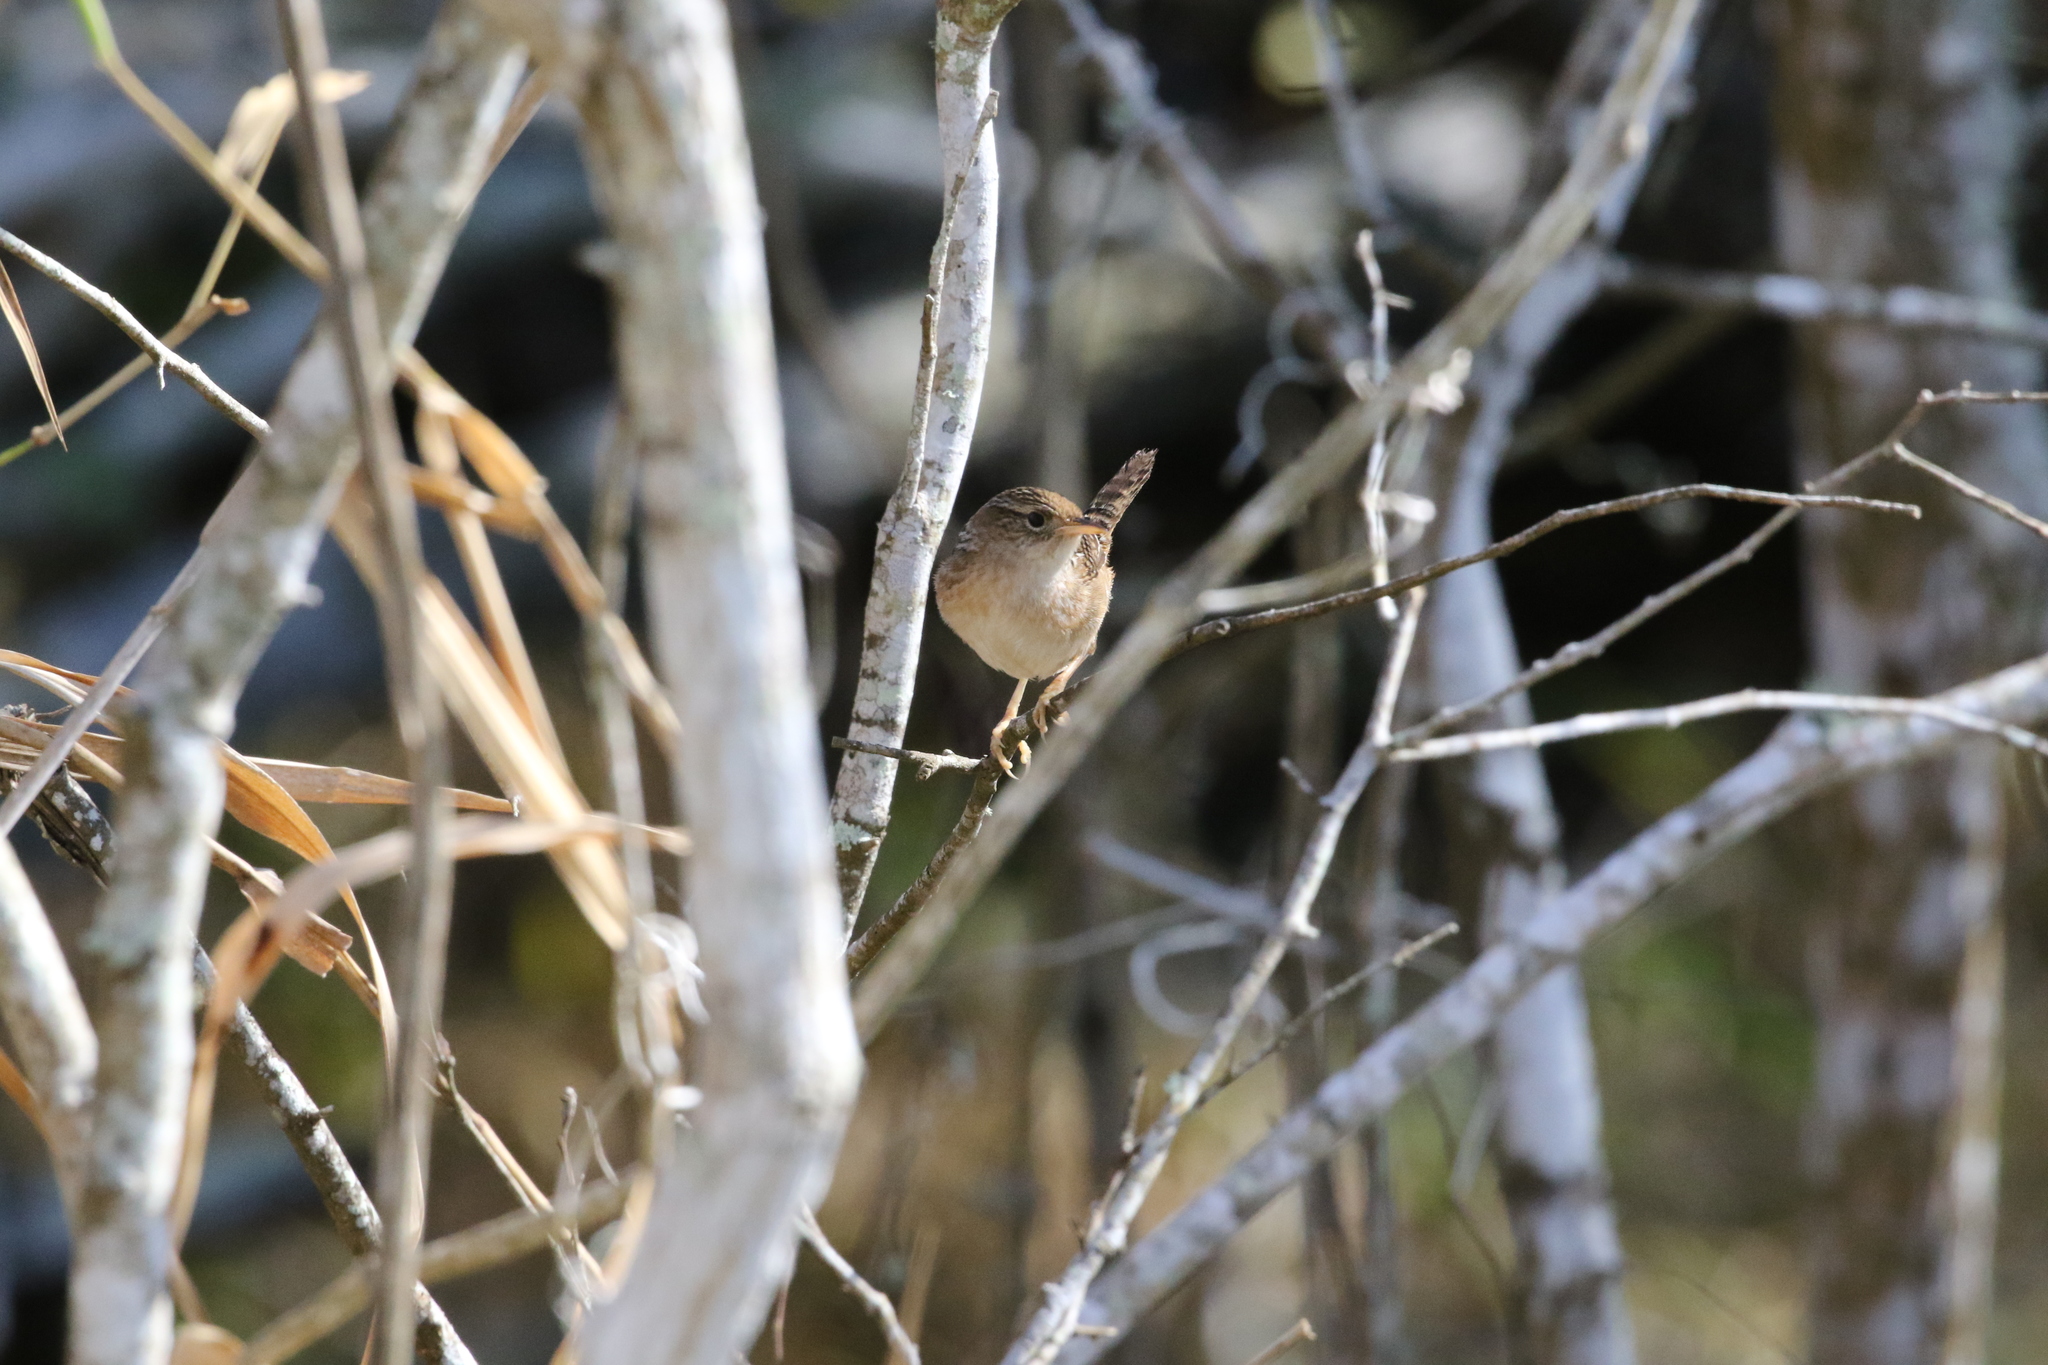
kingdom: Animalia
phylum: Chordata
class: Aves
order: Passeriformes
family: Troglodytidae
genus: Cistothorus
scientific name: Cistothorus platensis
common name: Sedge wren
